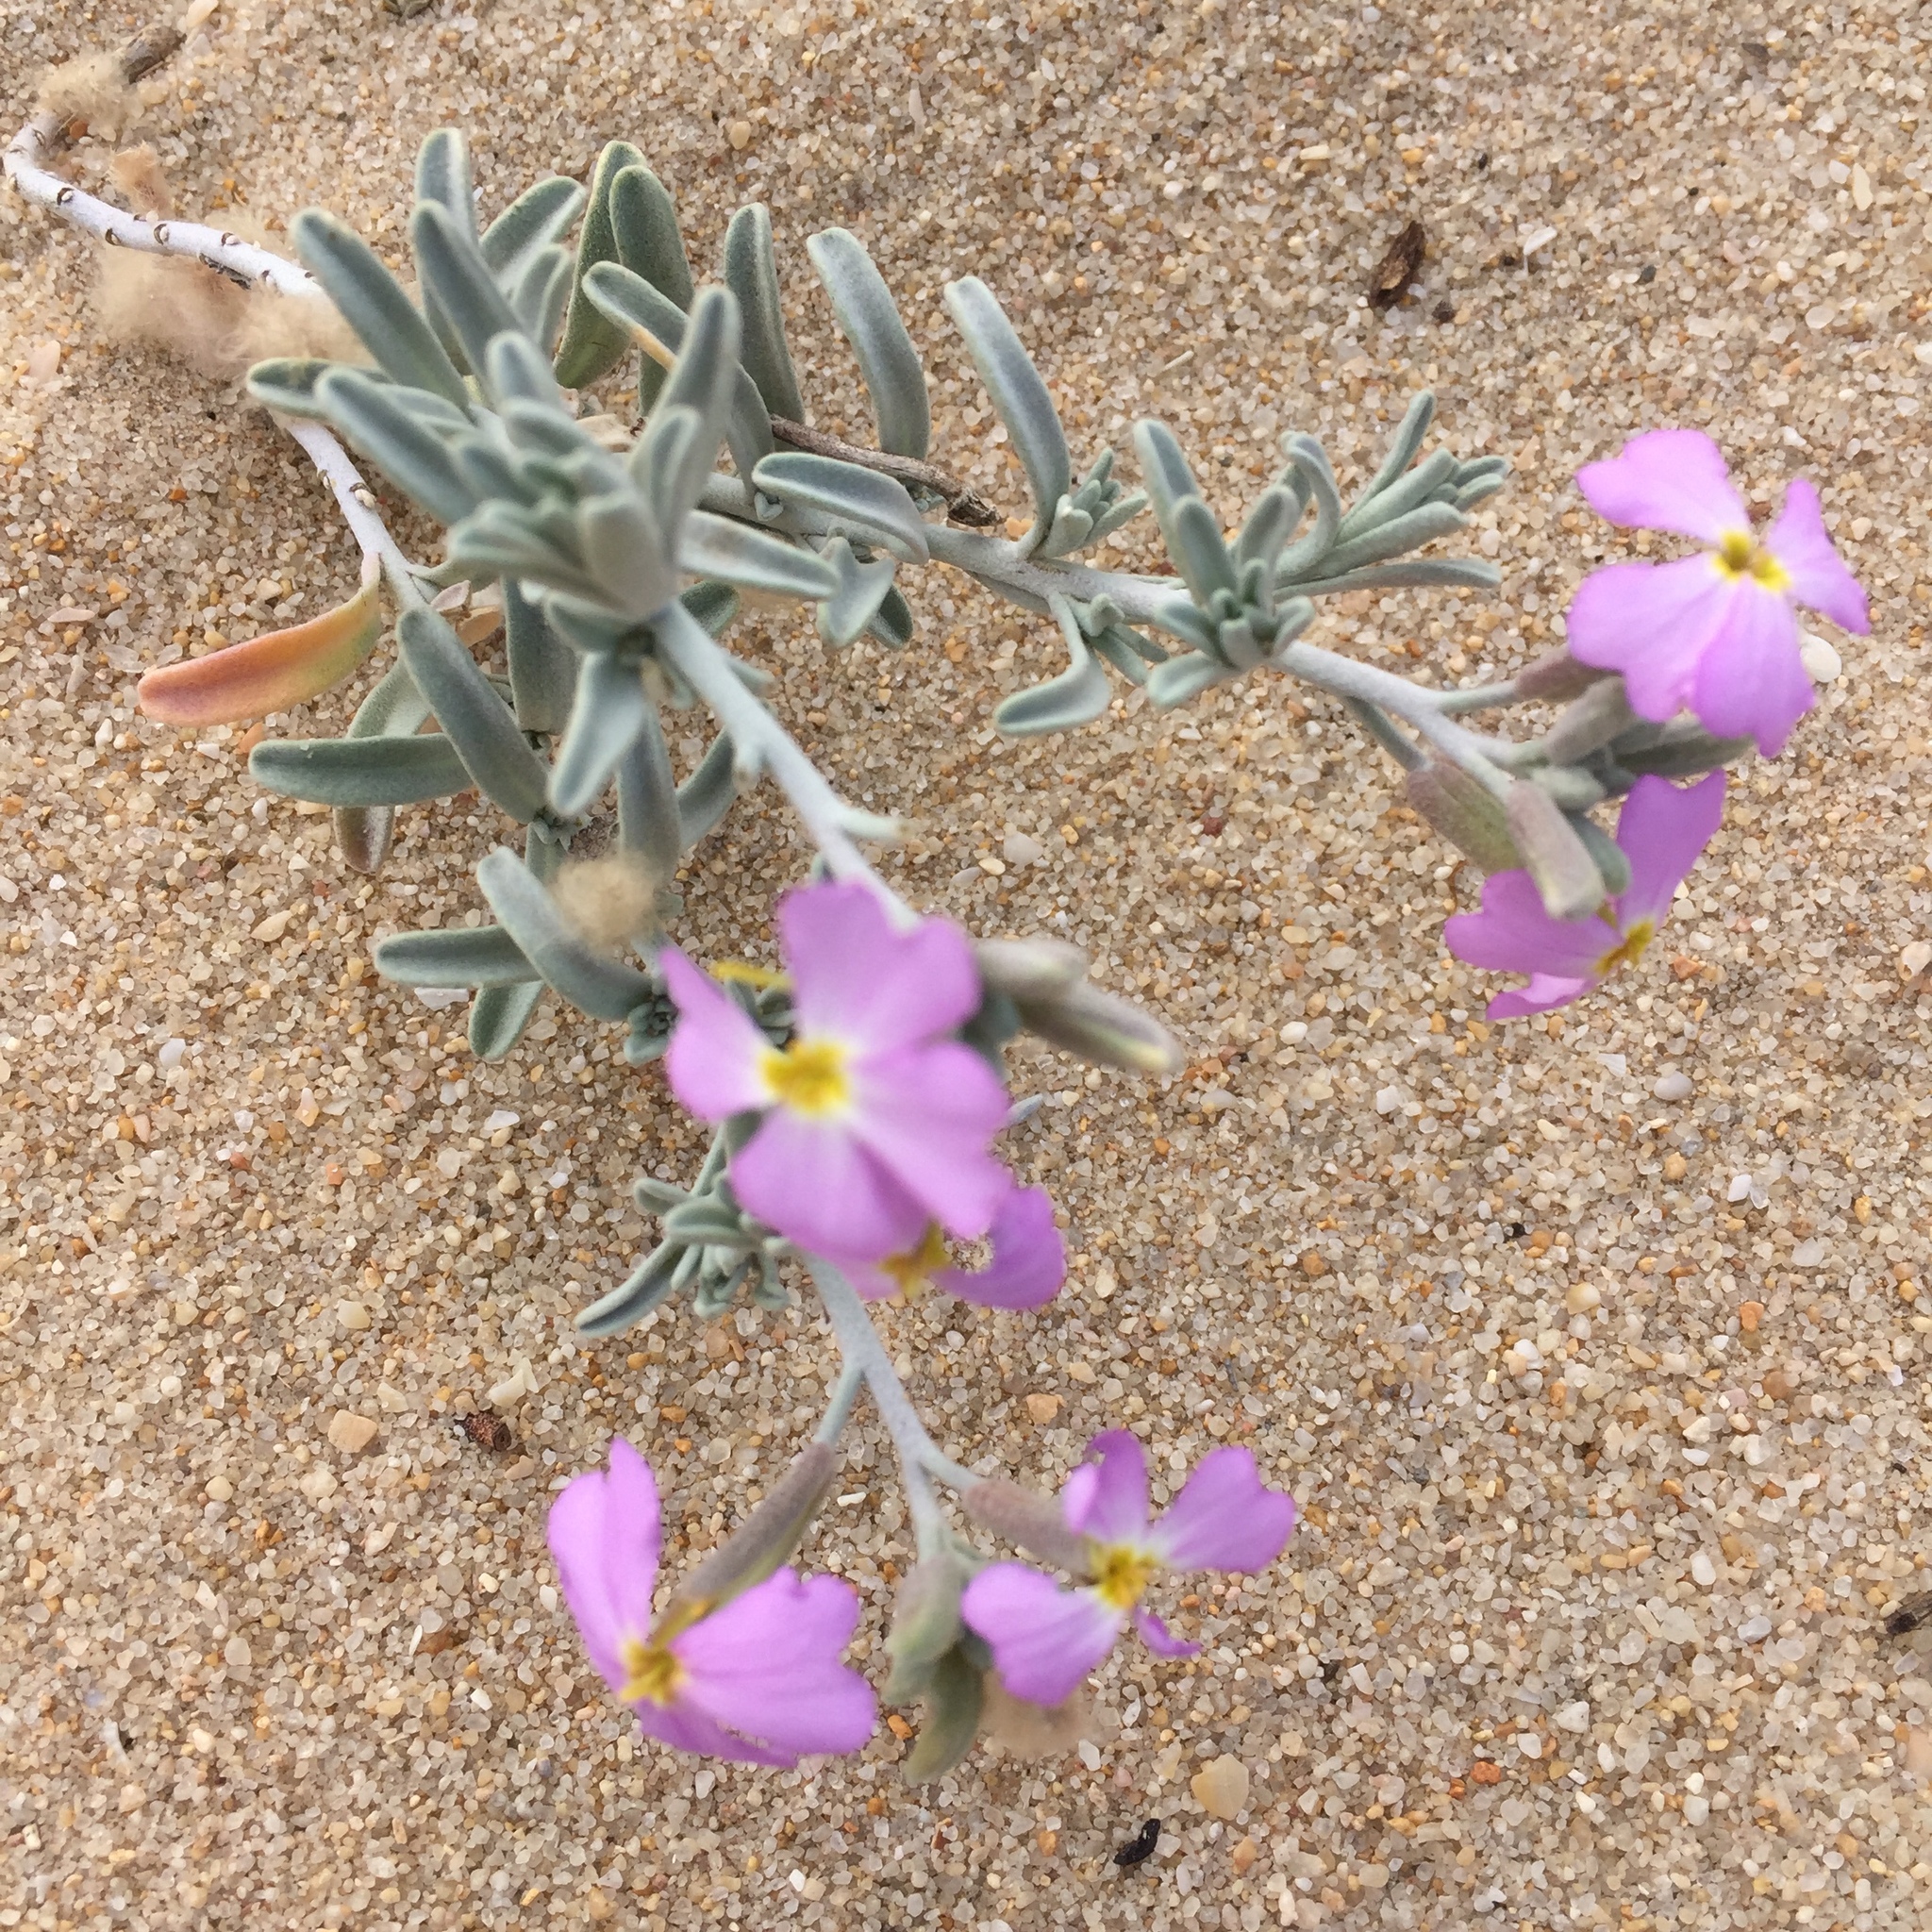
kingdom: Plantae
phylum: Tracheophyta
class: Magnoliopsida
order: Brassicales
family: Brassicaceae
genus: Marcuskochia
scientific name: Marcuskochia littorea
